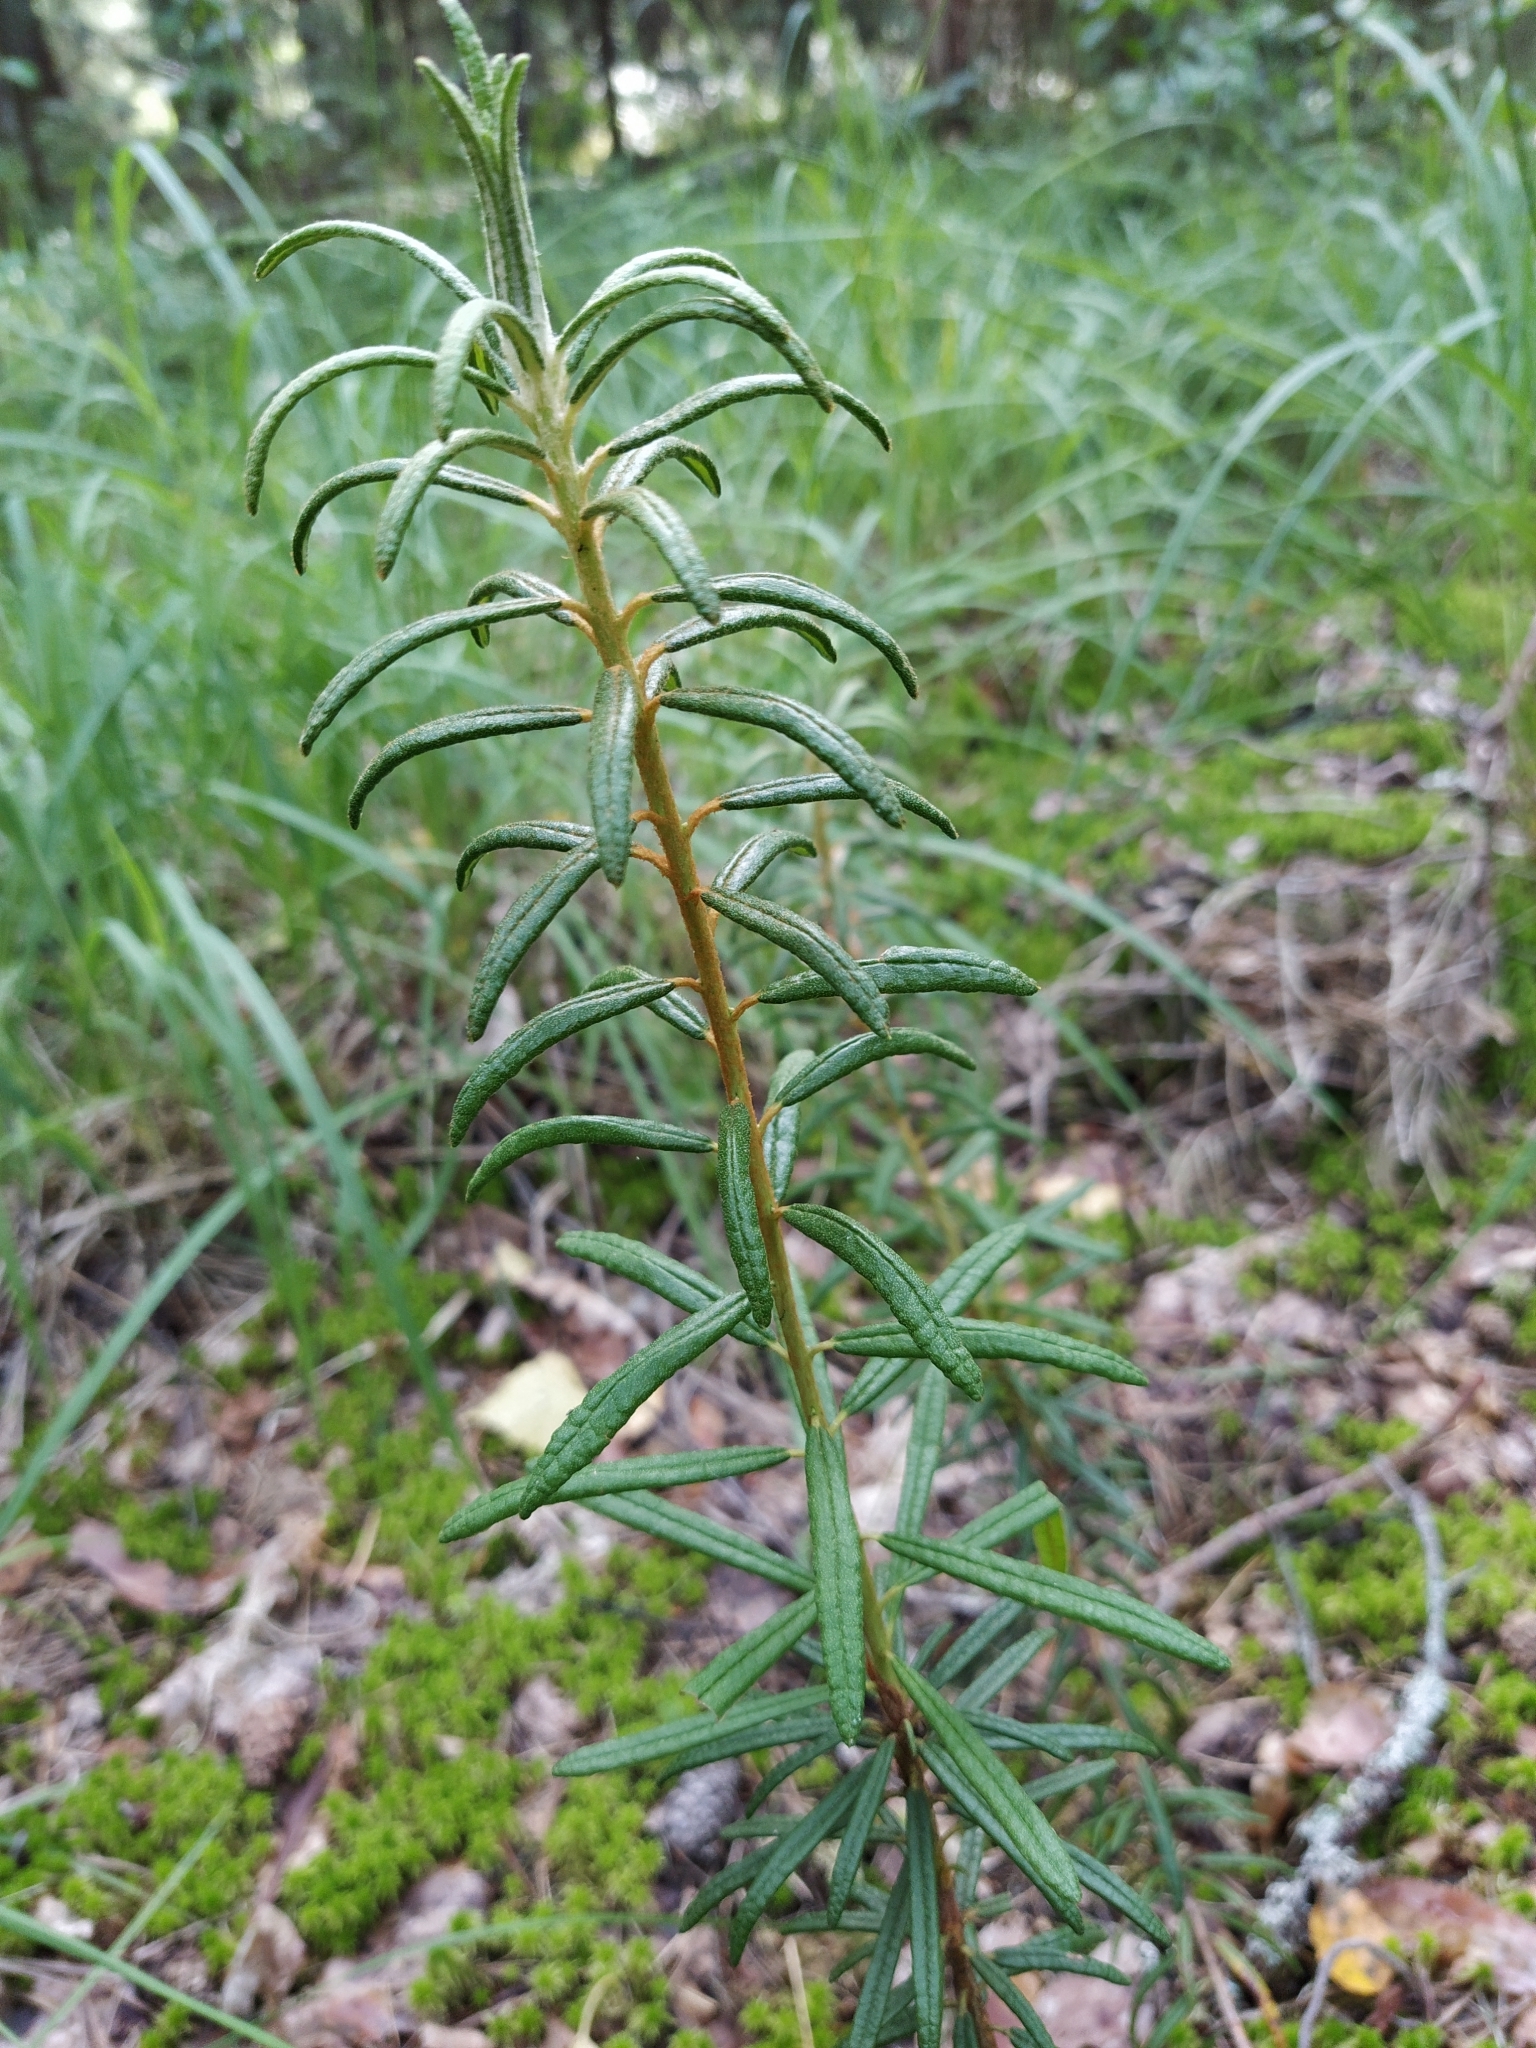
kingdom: Plantae
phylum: Tracheophyta
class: Magnoliopsida
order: Ericales
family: Ericaceae
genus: Rhododendron
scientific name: Rhododendron tomentosum
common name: Marsh labrador tea
